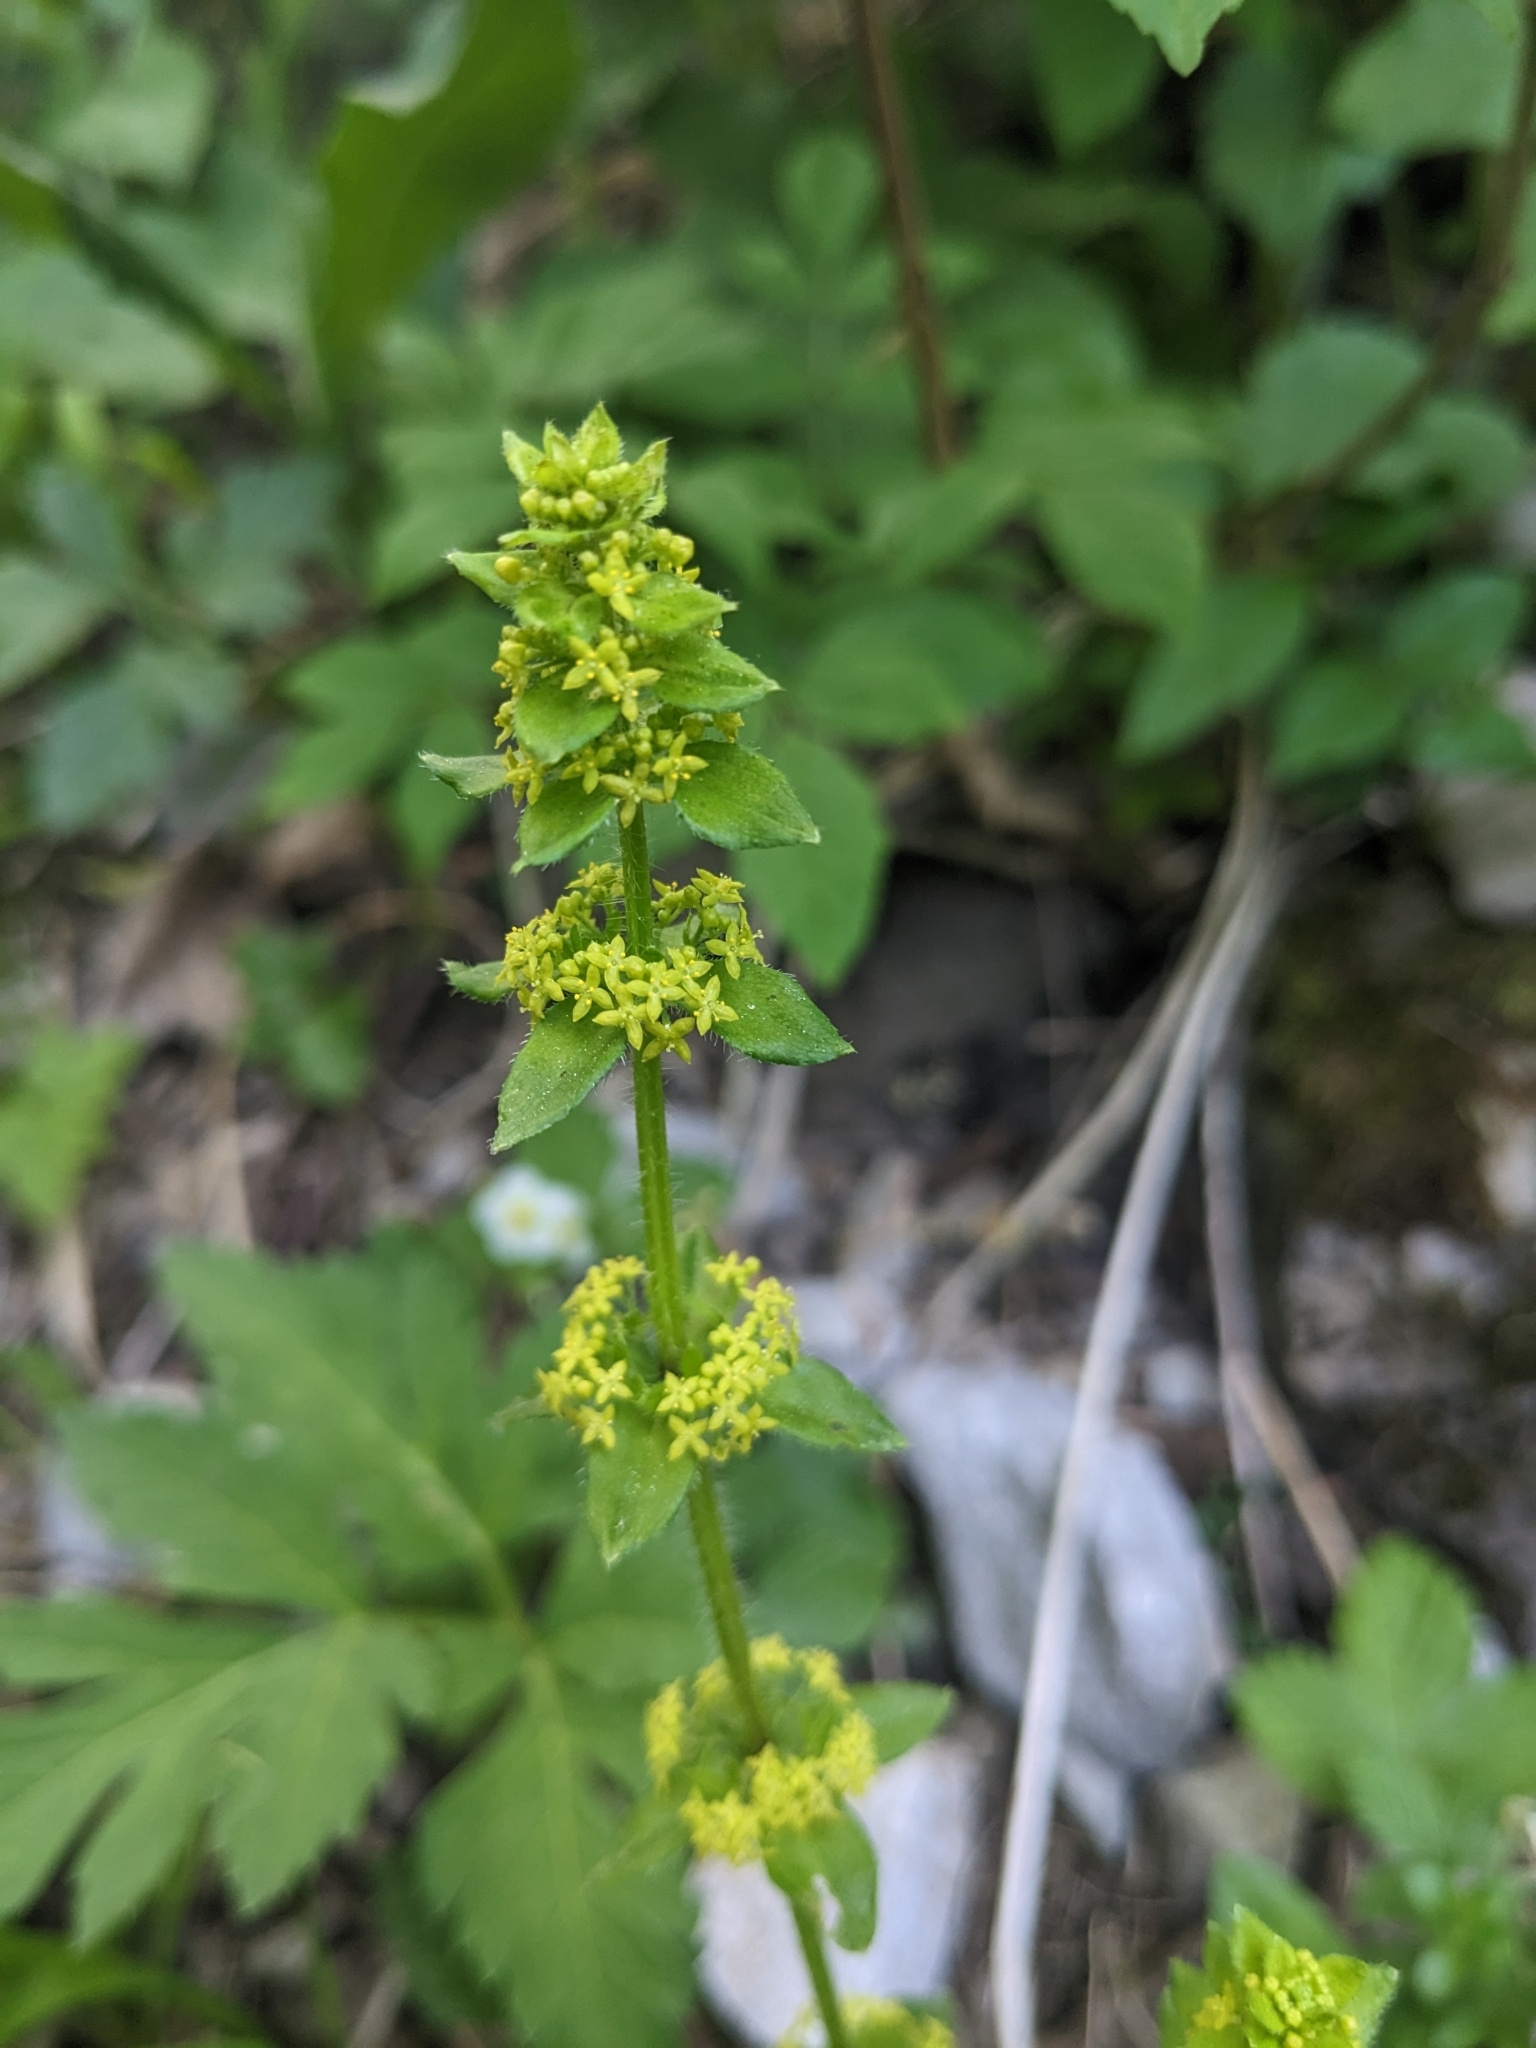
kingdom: Plantae
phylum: Tracheophyta
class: Magnoliopsida
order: Gentianales
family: Rubiaceae
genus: Cruciata
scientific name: Cruciata laevipes
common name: Crosswort
